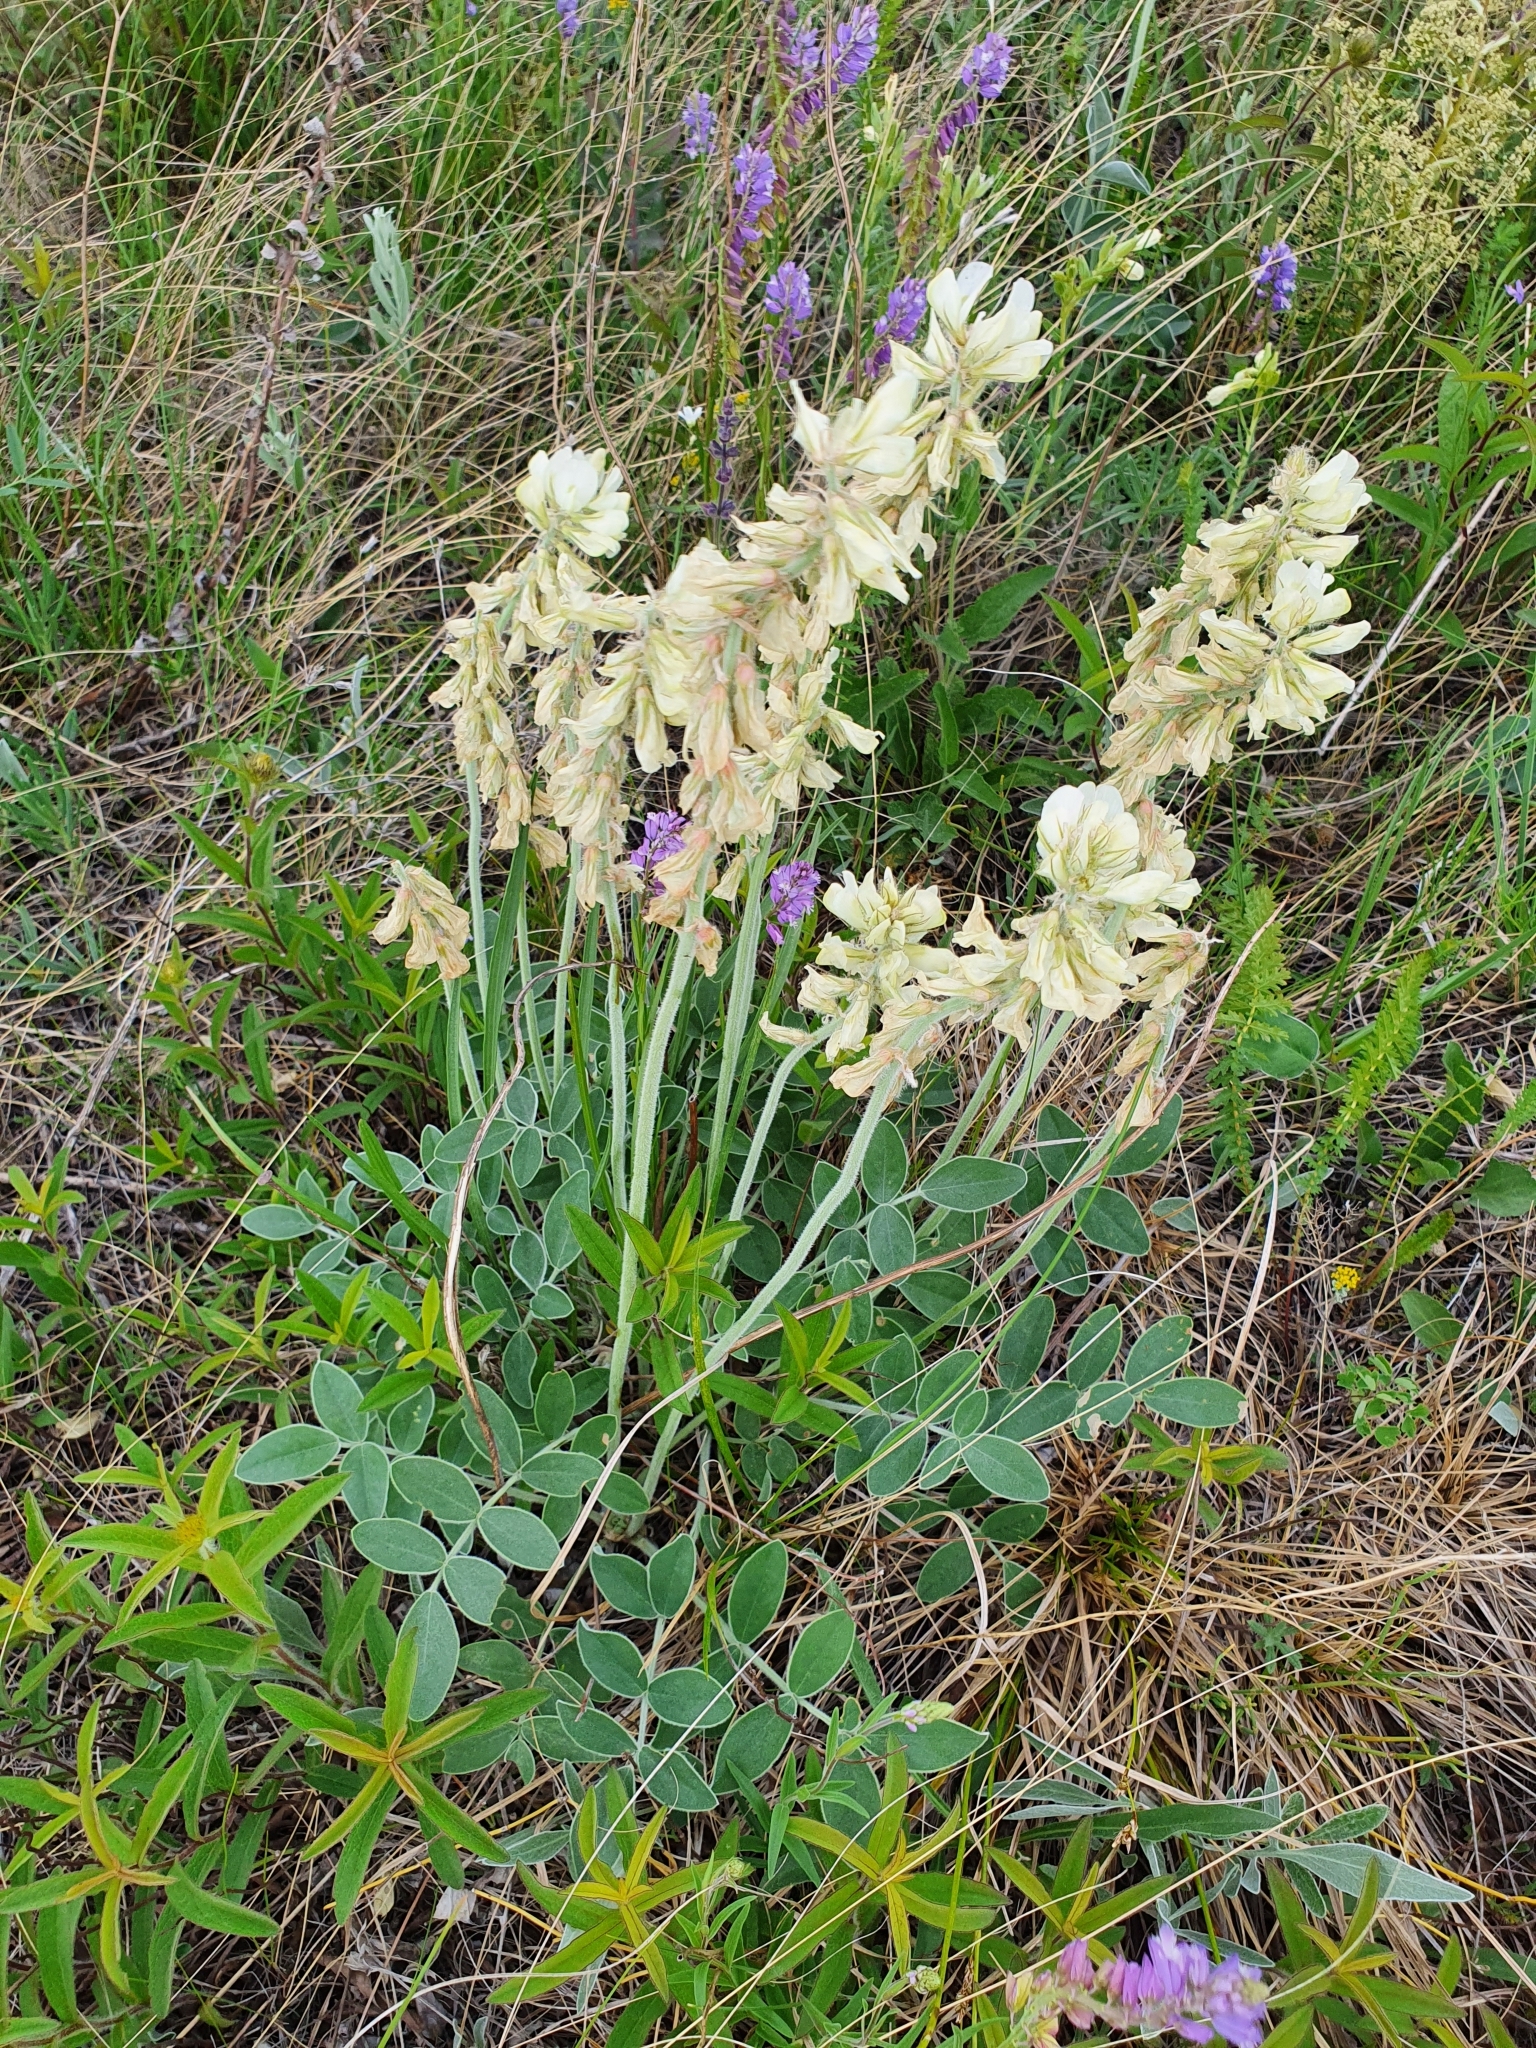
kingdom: Plantae
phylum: Tracheophyta
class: Magnoliopsida
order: Fabales
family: Fabaceae
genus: Hedysarum
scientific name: Hedysarum grandiflorum
